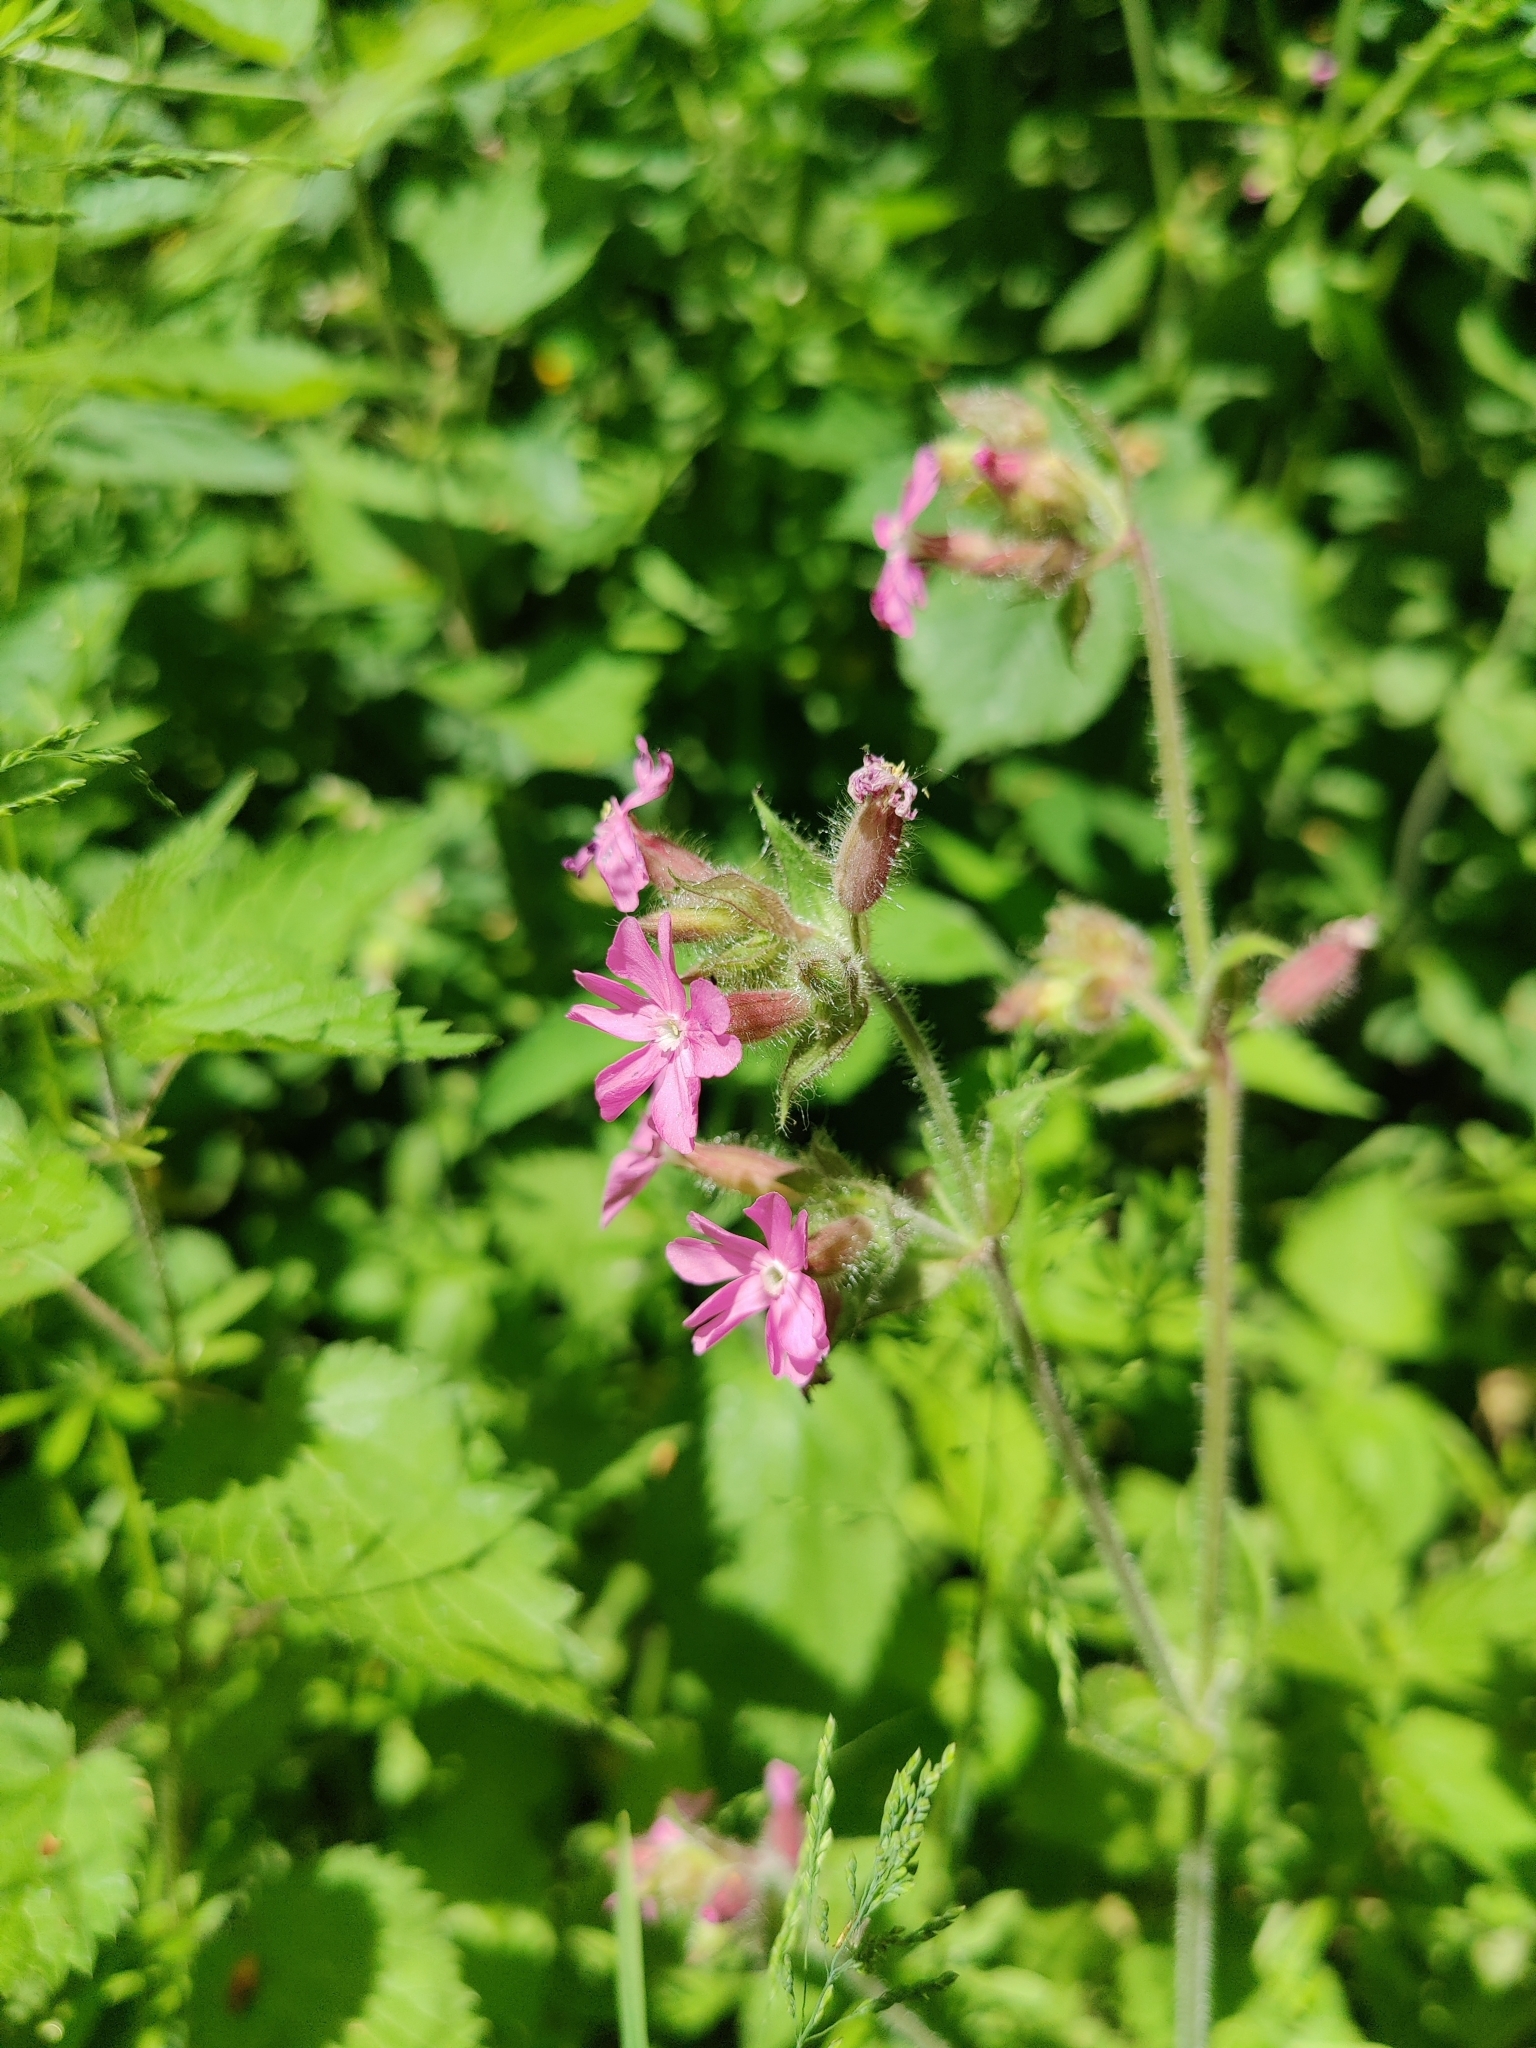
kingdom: Plantae
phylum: Tracheophyta
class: Magnoliopsida
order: Caryophyllales
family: Caryophyllaceae
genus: Silene
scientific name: Silene dioica
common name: Red campion
